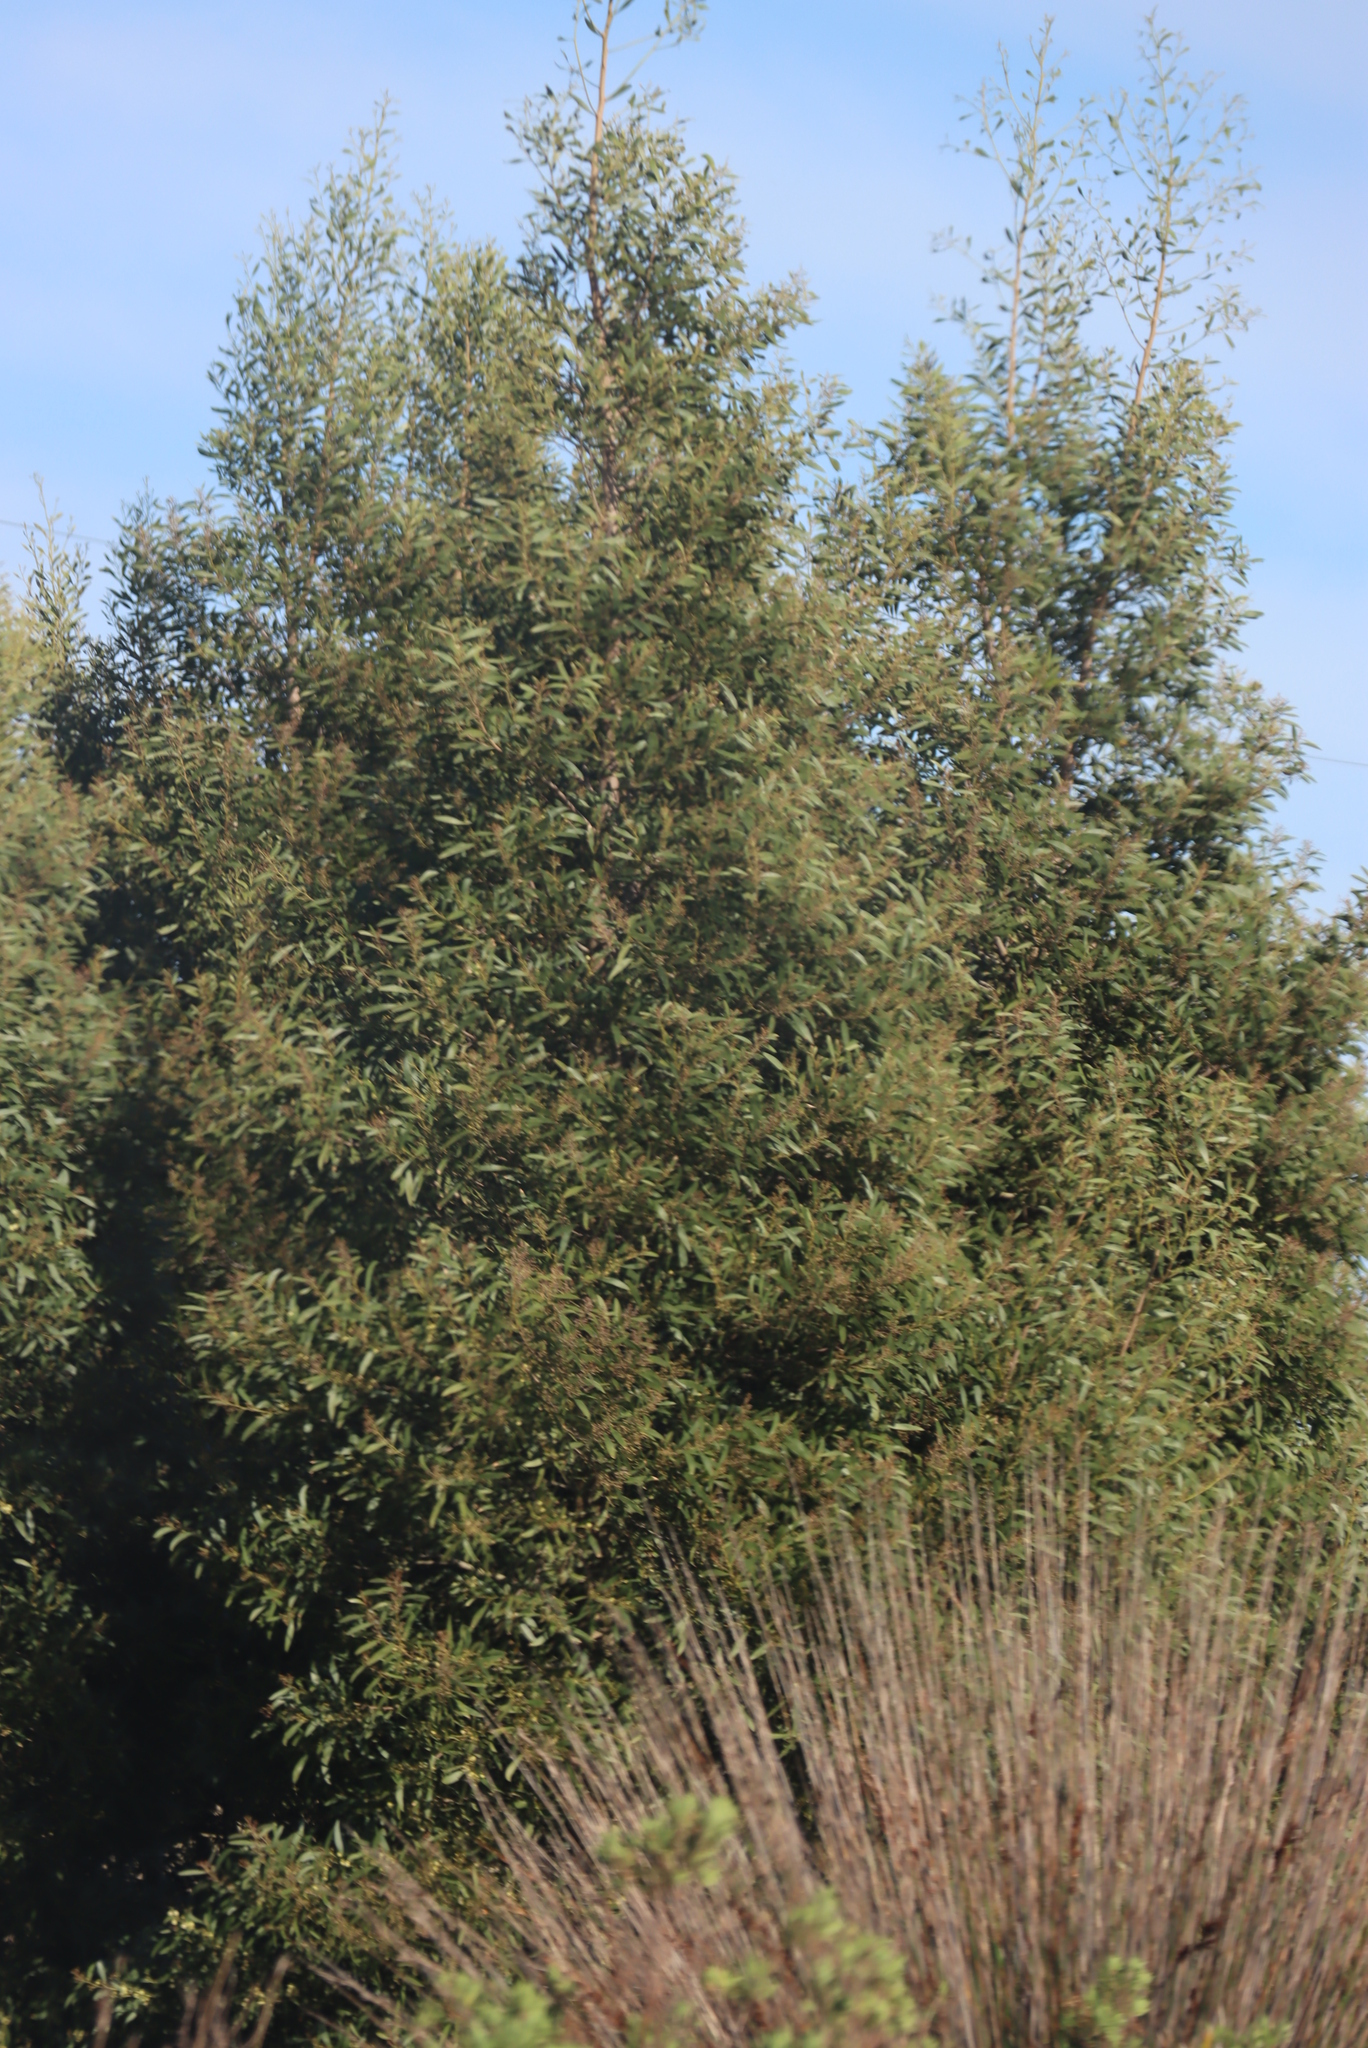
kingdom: Plantae
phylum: Tracheophyta
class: Magnoliopsida
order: Fabales
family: Fabaceae
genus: Acacia
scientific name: Acacia melanoxylon
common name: Blackwood
